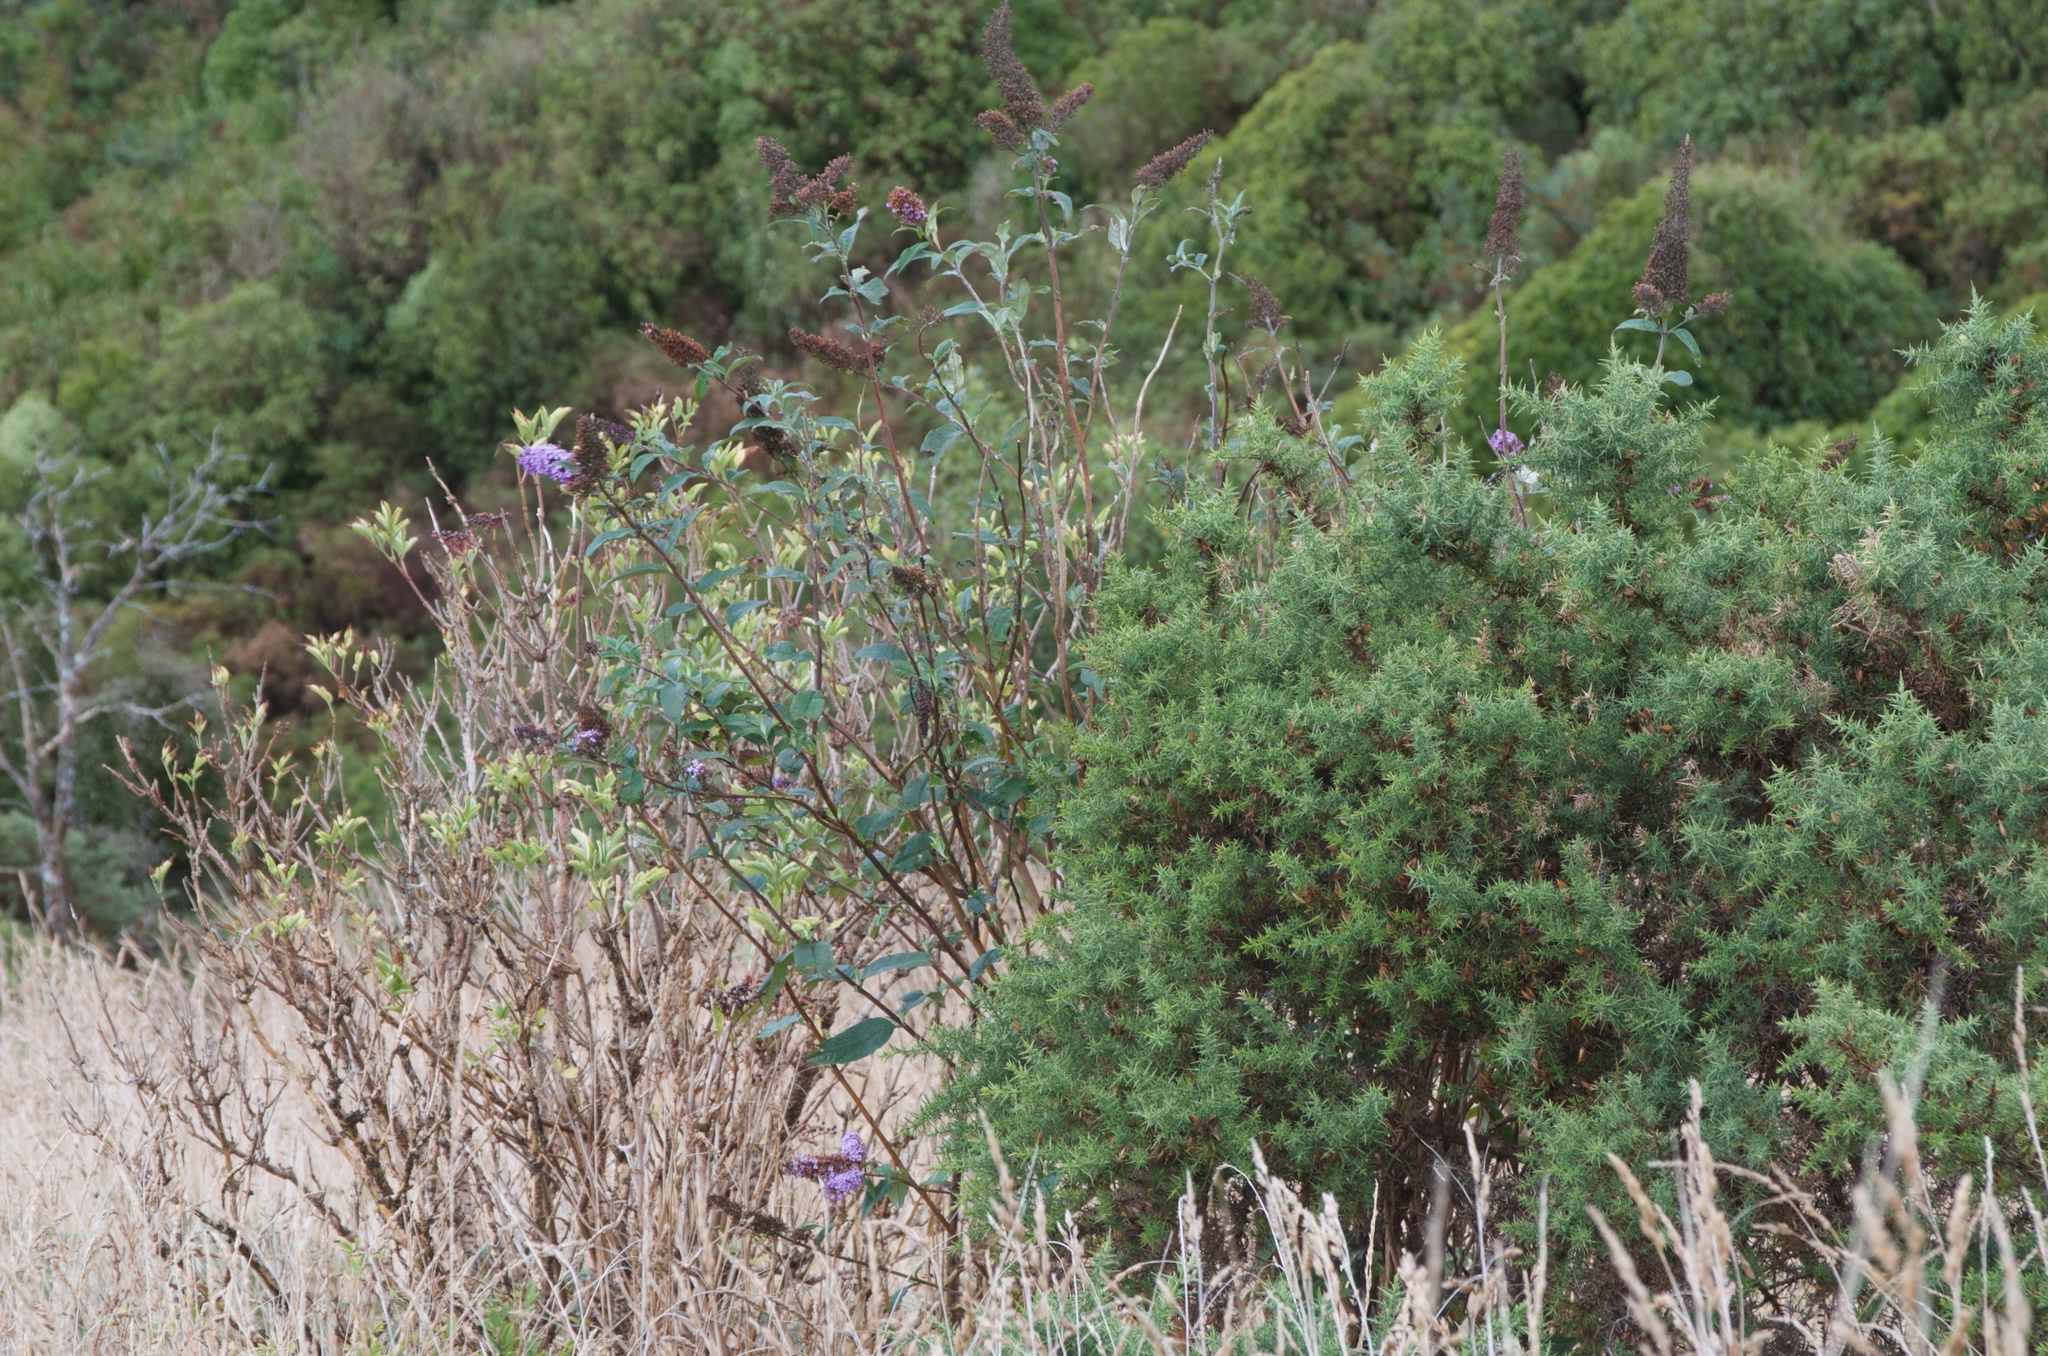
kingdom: Plantae
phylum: Tracheophyta
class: Magnoliopsida
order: Lamiales
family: Scrophulariaceae
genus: Buddleja
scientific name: Buddleja davidii
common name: Butterfly-bush
